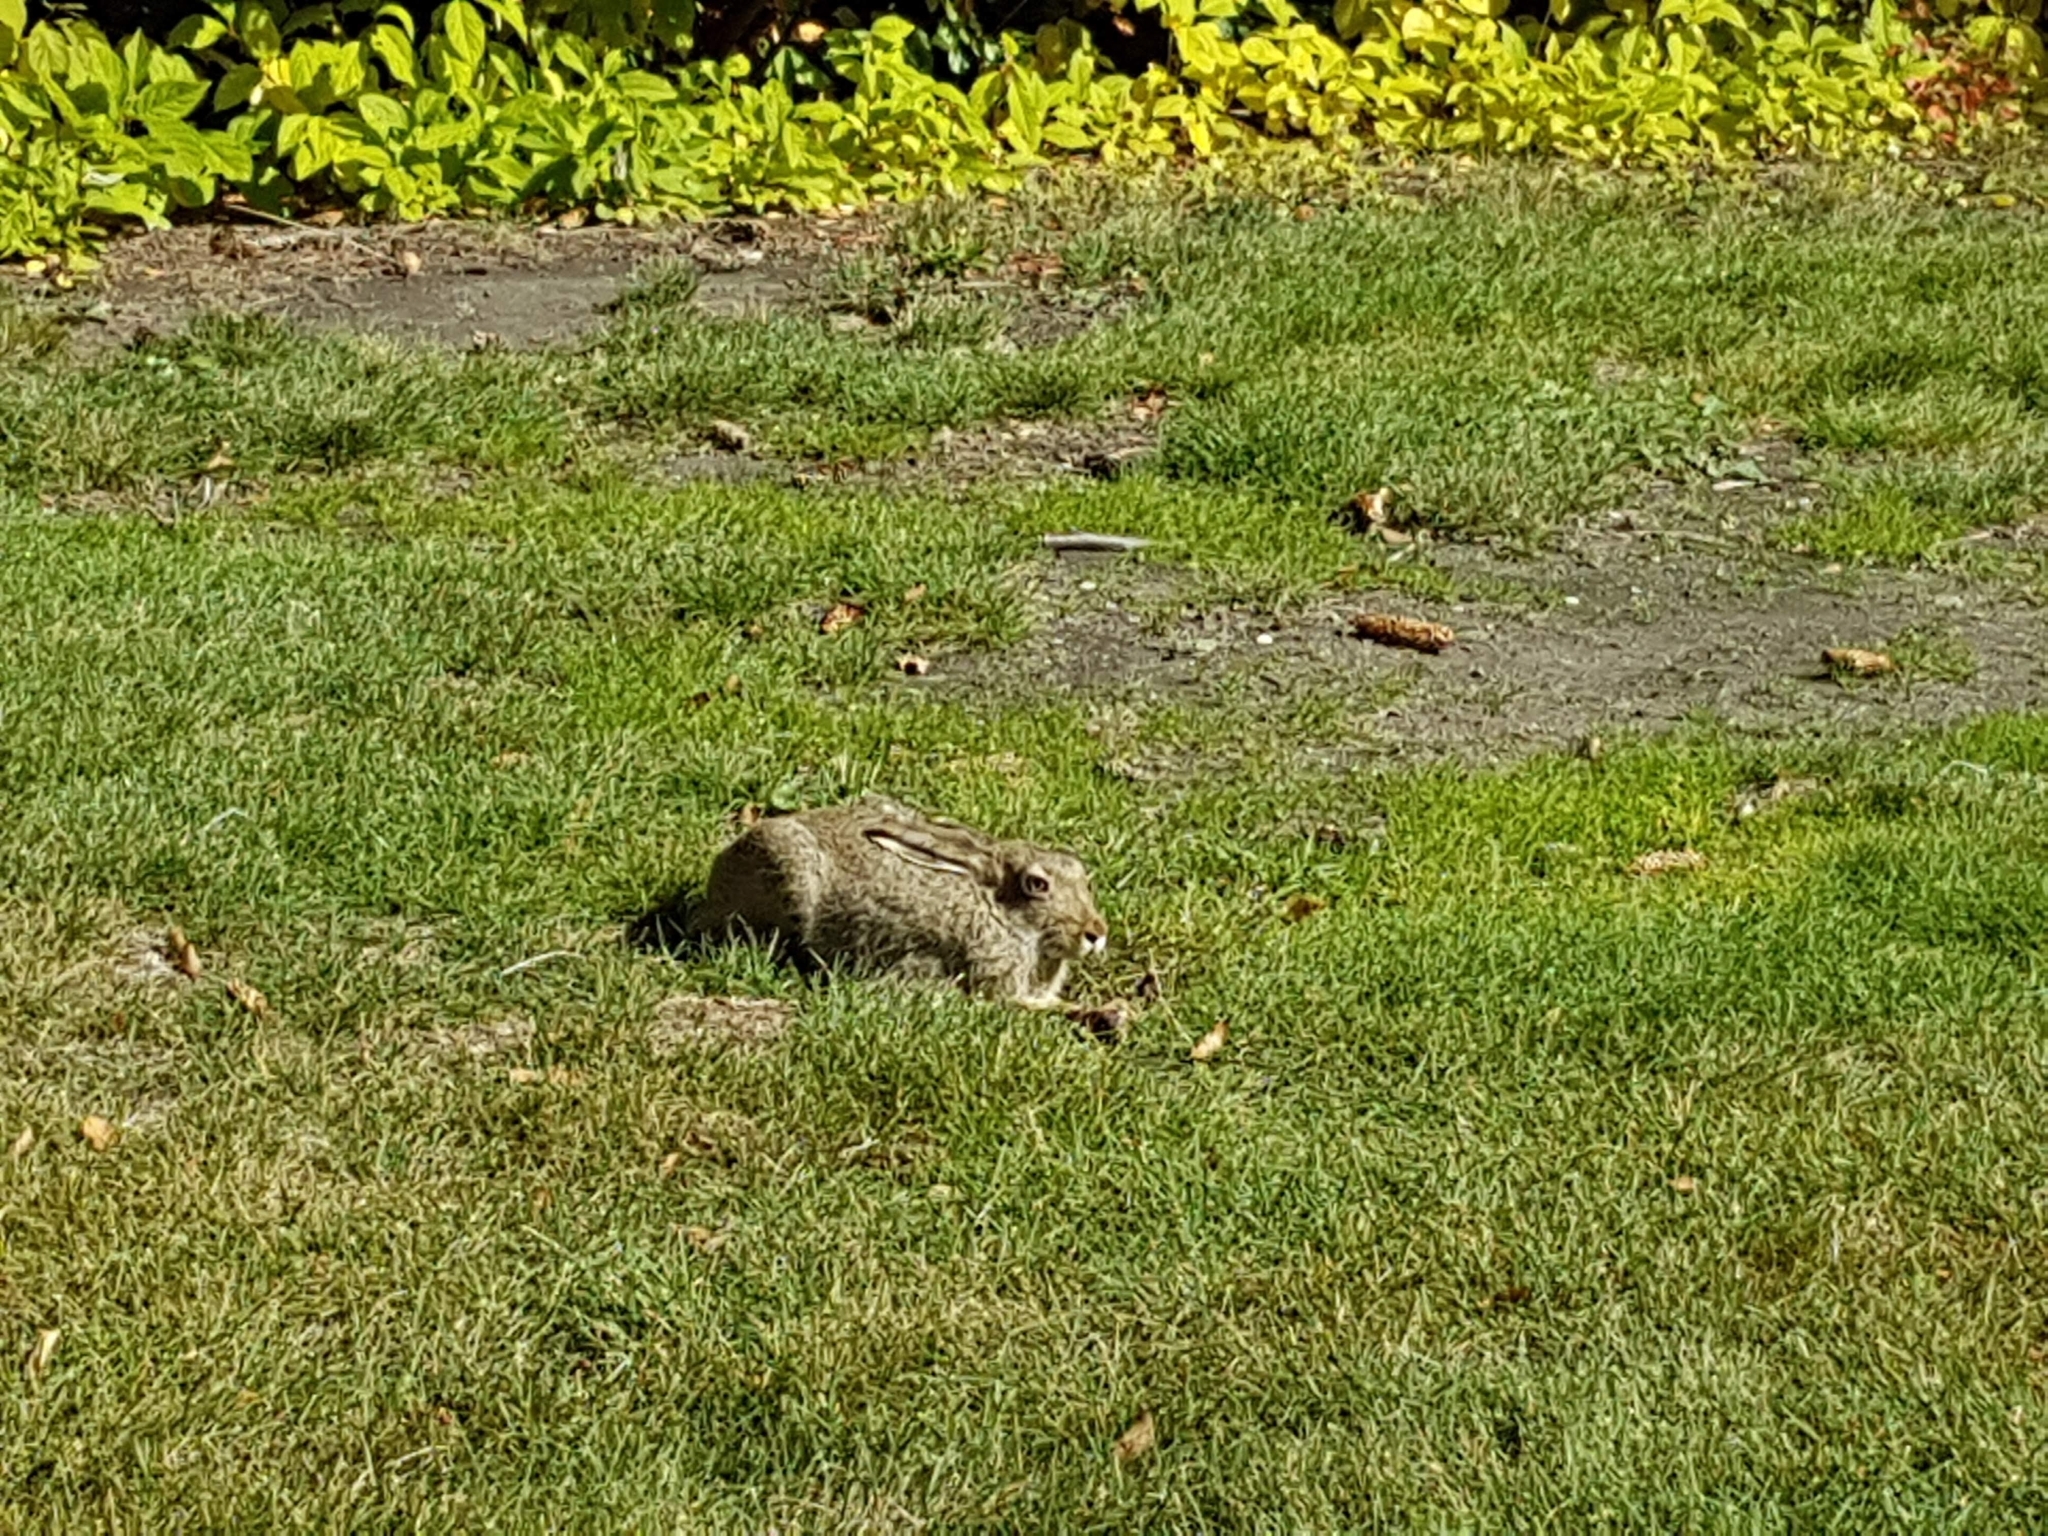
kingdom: Animalia
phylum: Chordata
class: Mammalia
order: Lagomorpha
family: Leporidae
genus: Lepus
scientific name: Lepus townsendii
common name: White-tailed jackrabbit
